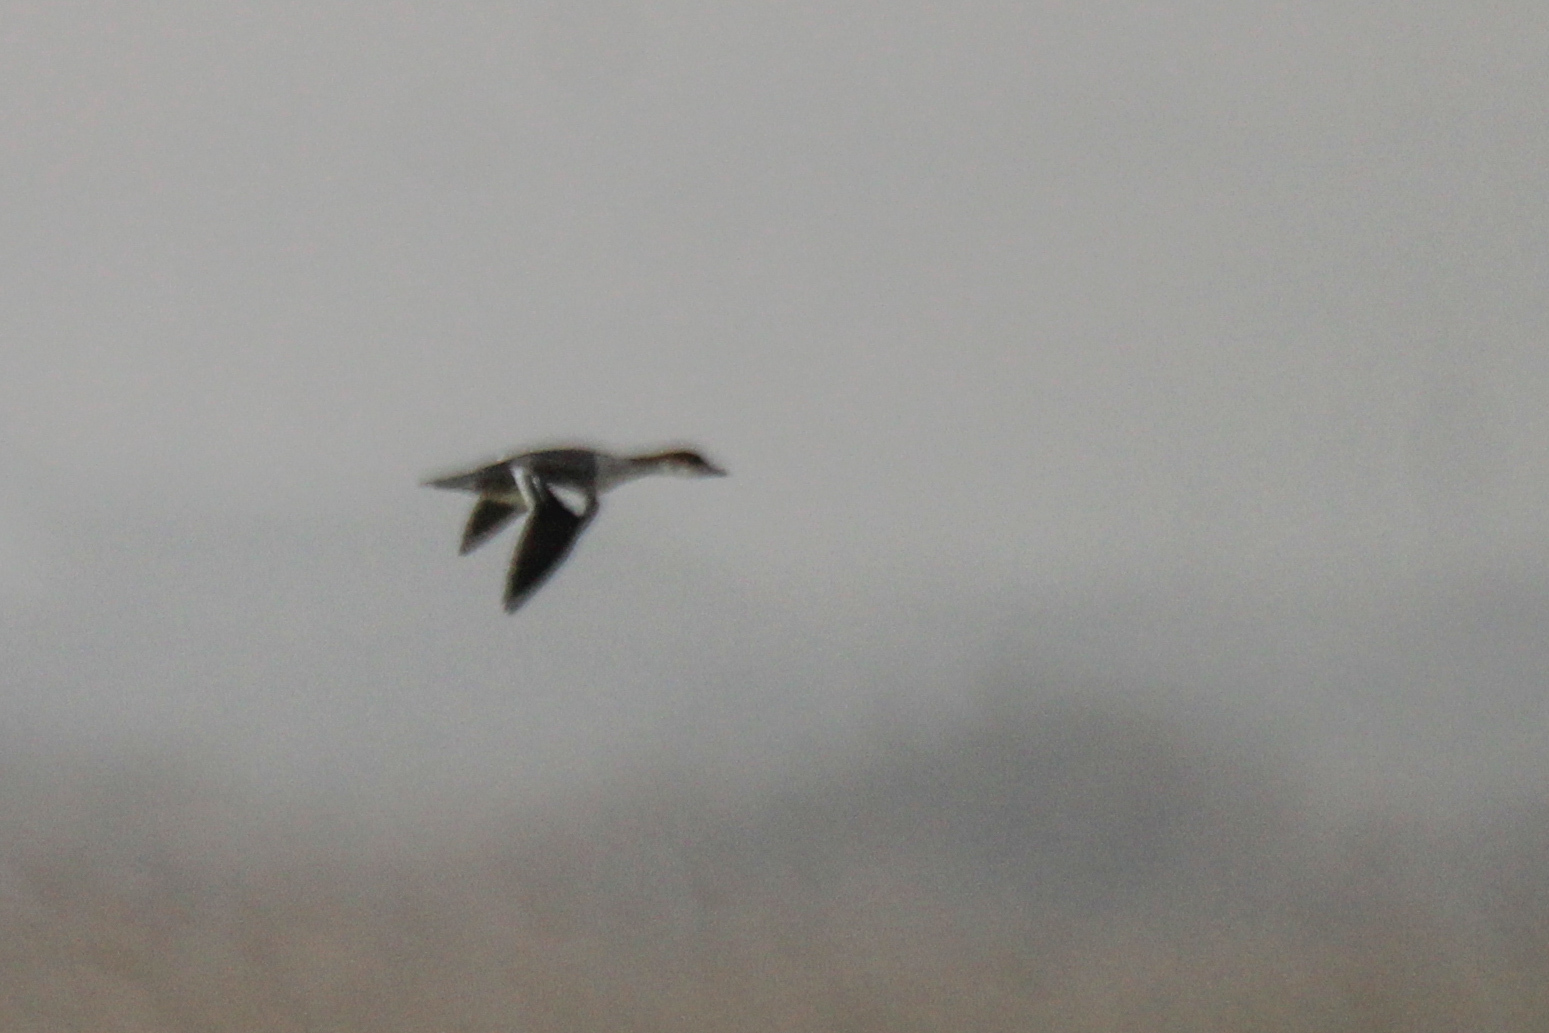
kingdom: Animalia
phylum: Chordata
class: Aves
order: Anseriformes
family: Anatidae
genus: Mergellus
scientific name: Mergellus albellus
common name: Smew
